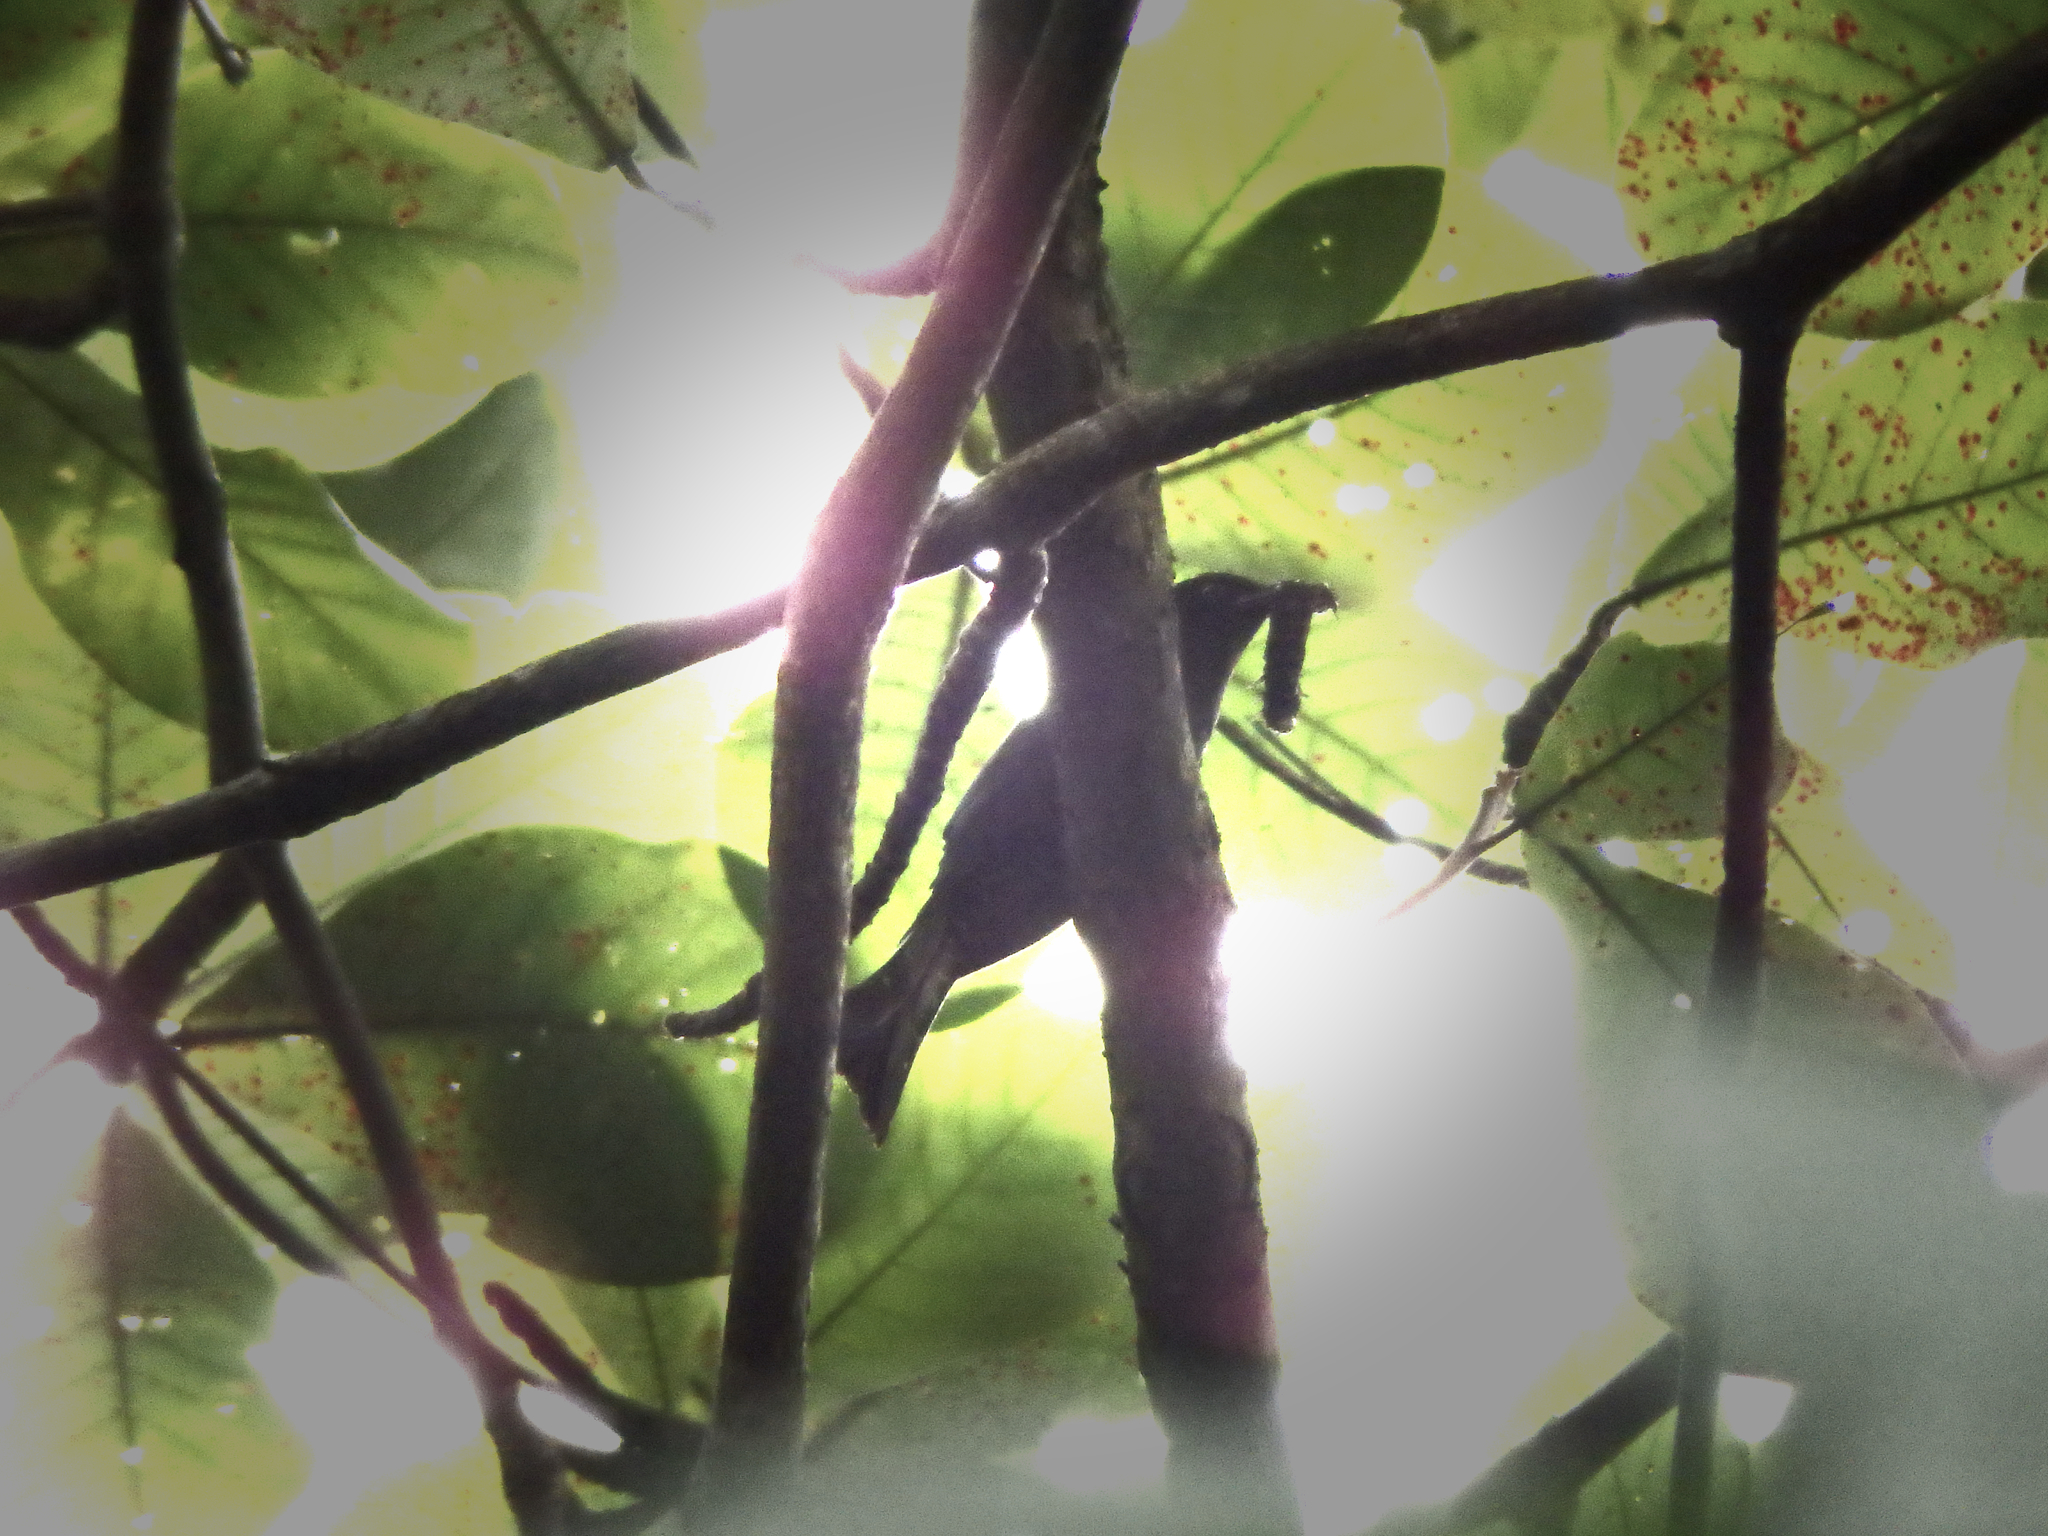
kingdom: Animalia
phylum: Chordata
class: Aves
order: Cuculiformes
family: Cuculidae
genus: Surniculus
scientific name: Surniculus lugubris
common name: Square-tailed drongo-cuckoo
